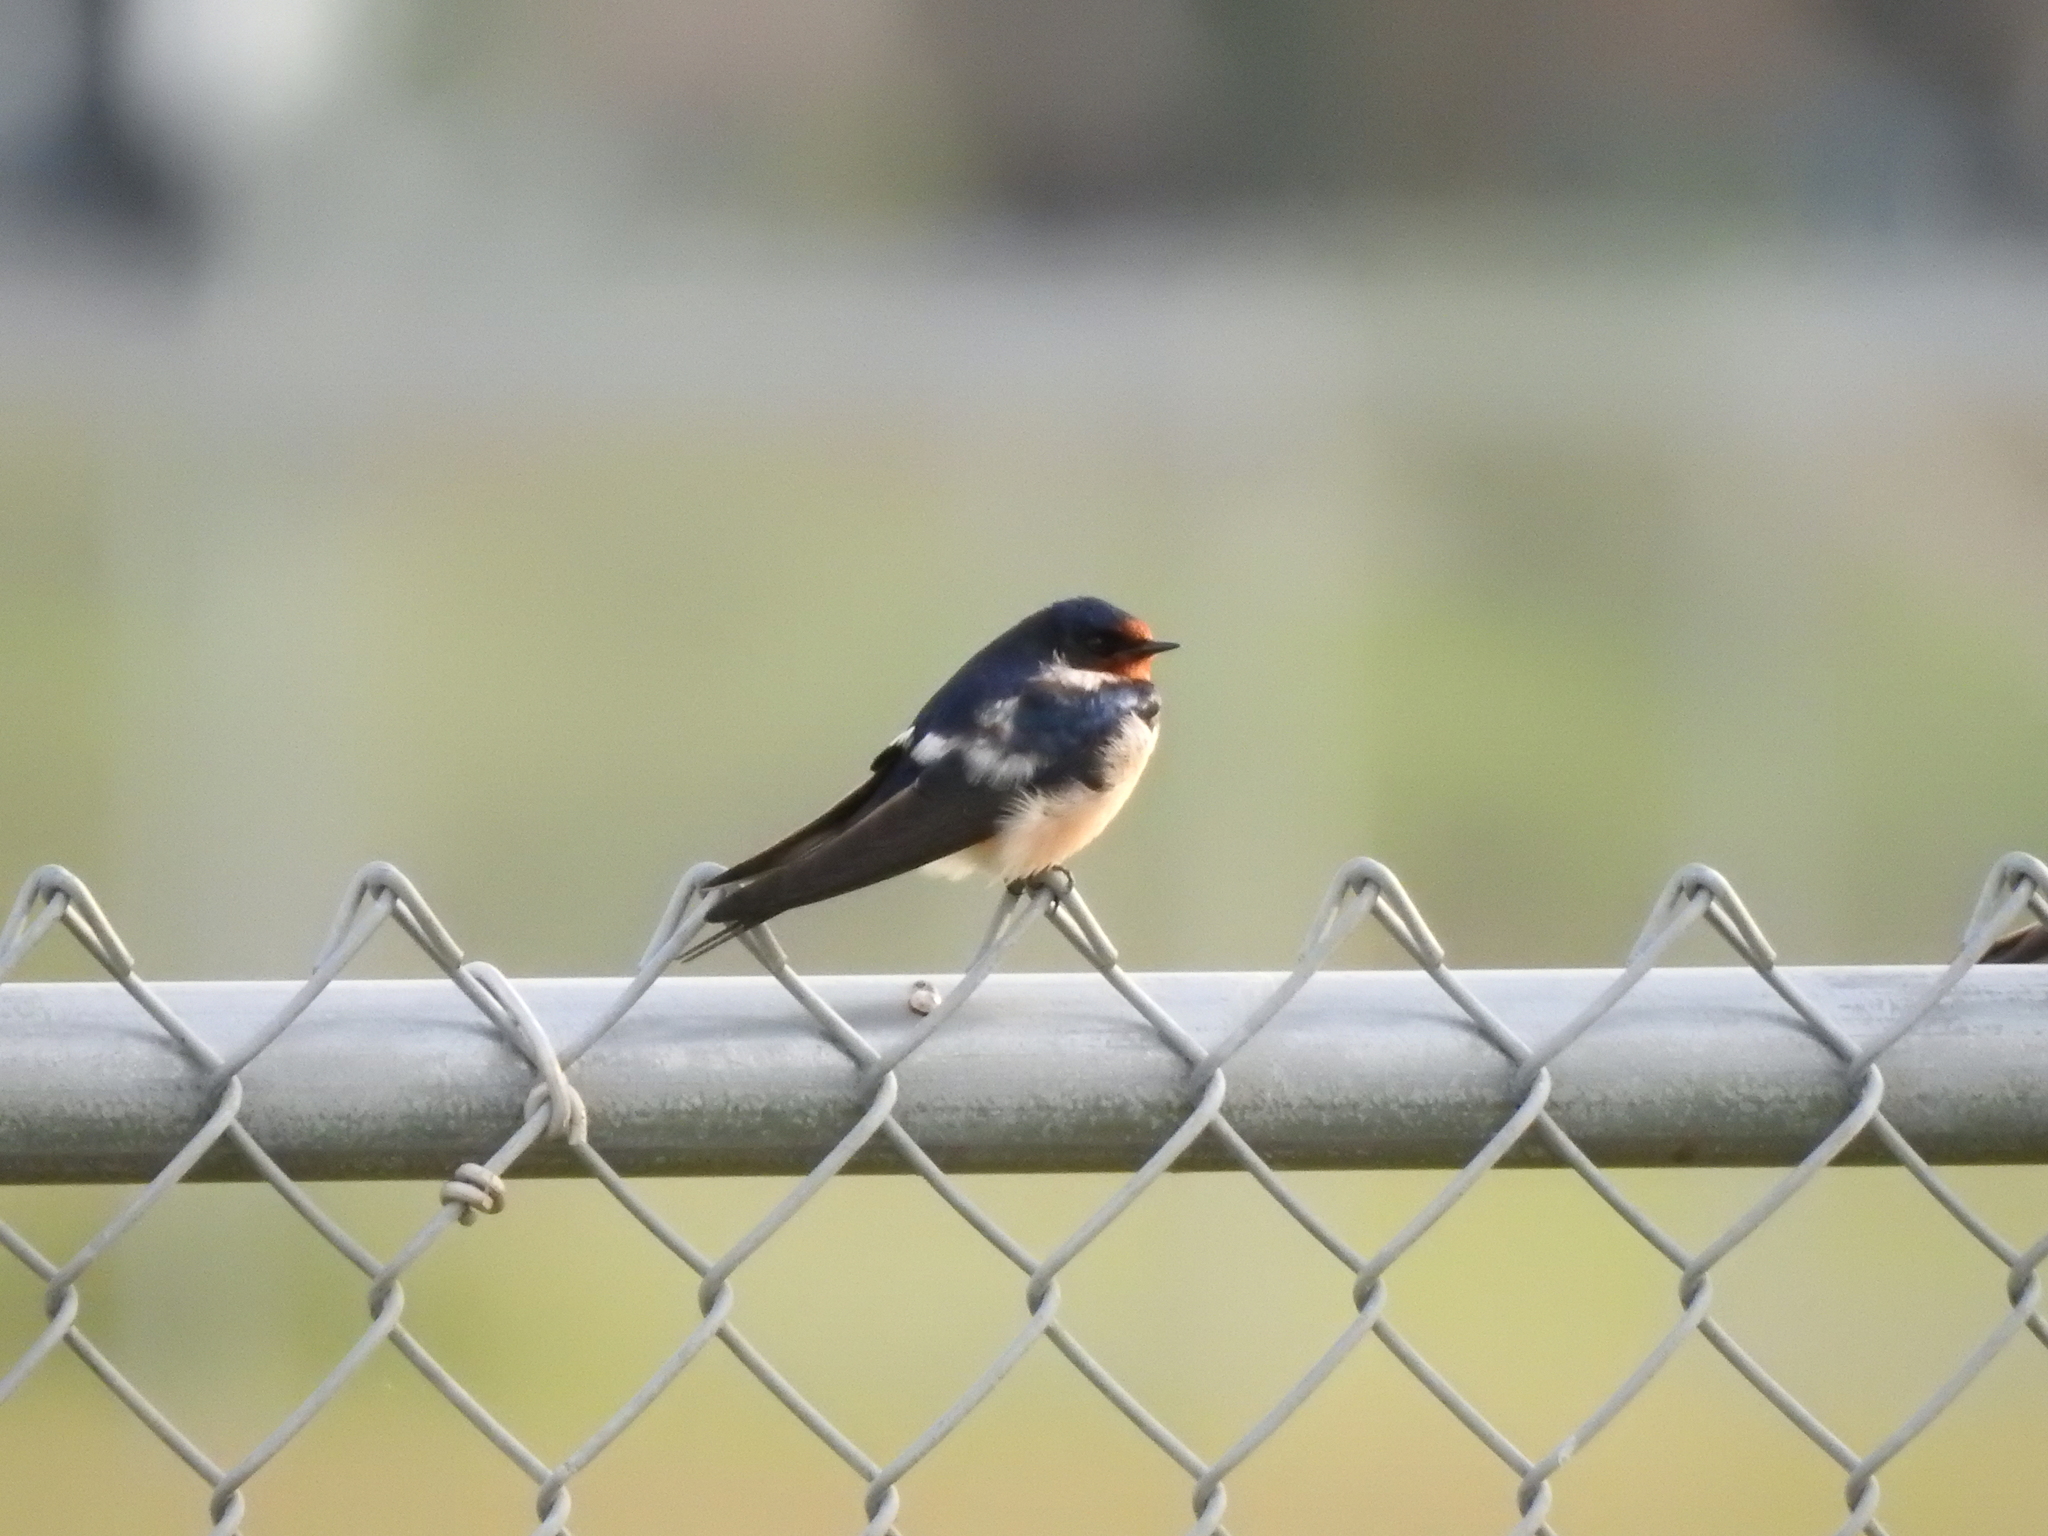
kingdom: Animalia
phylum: Chordata
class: Aves
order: Passeriformes
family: Hirundinidae
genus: Hirundo
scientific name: Hirundo rustica
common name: Barn swallow
